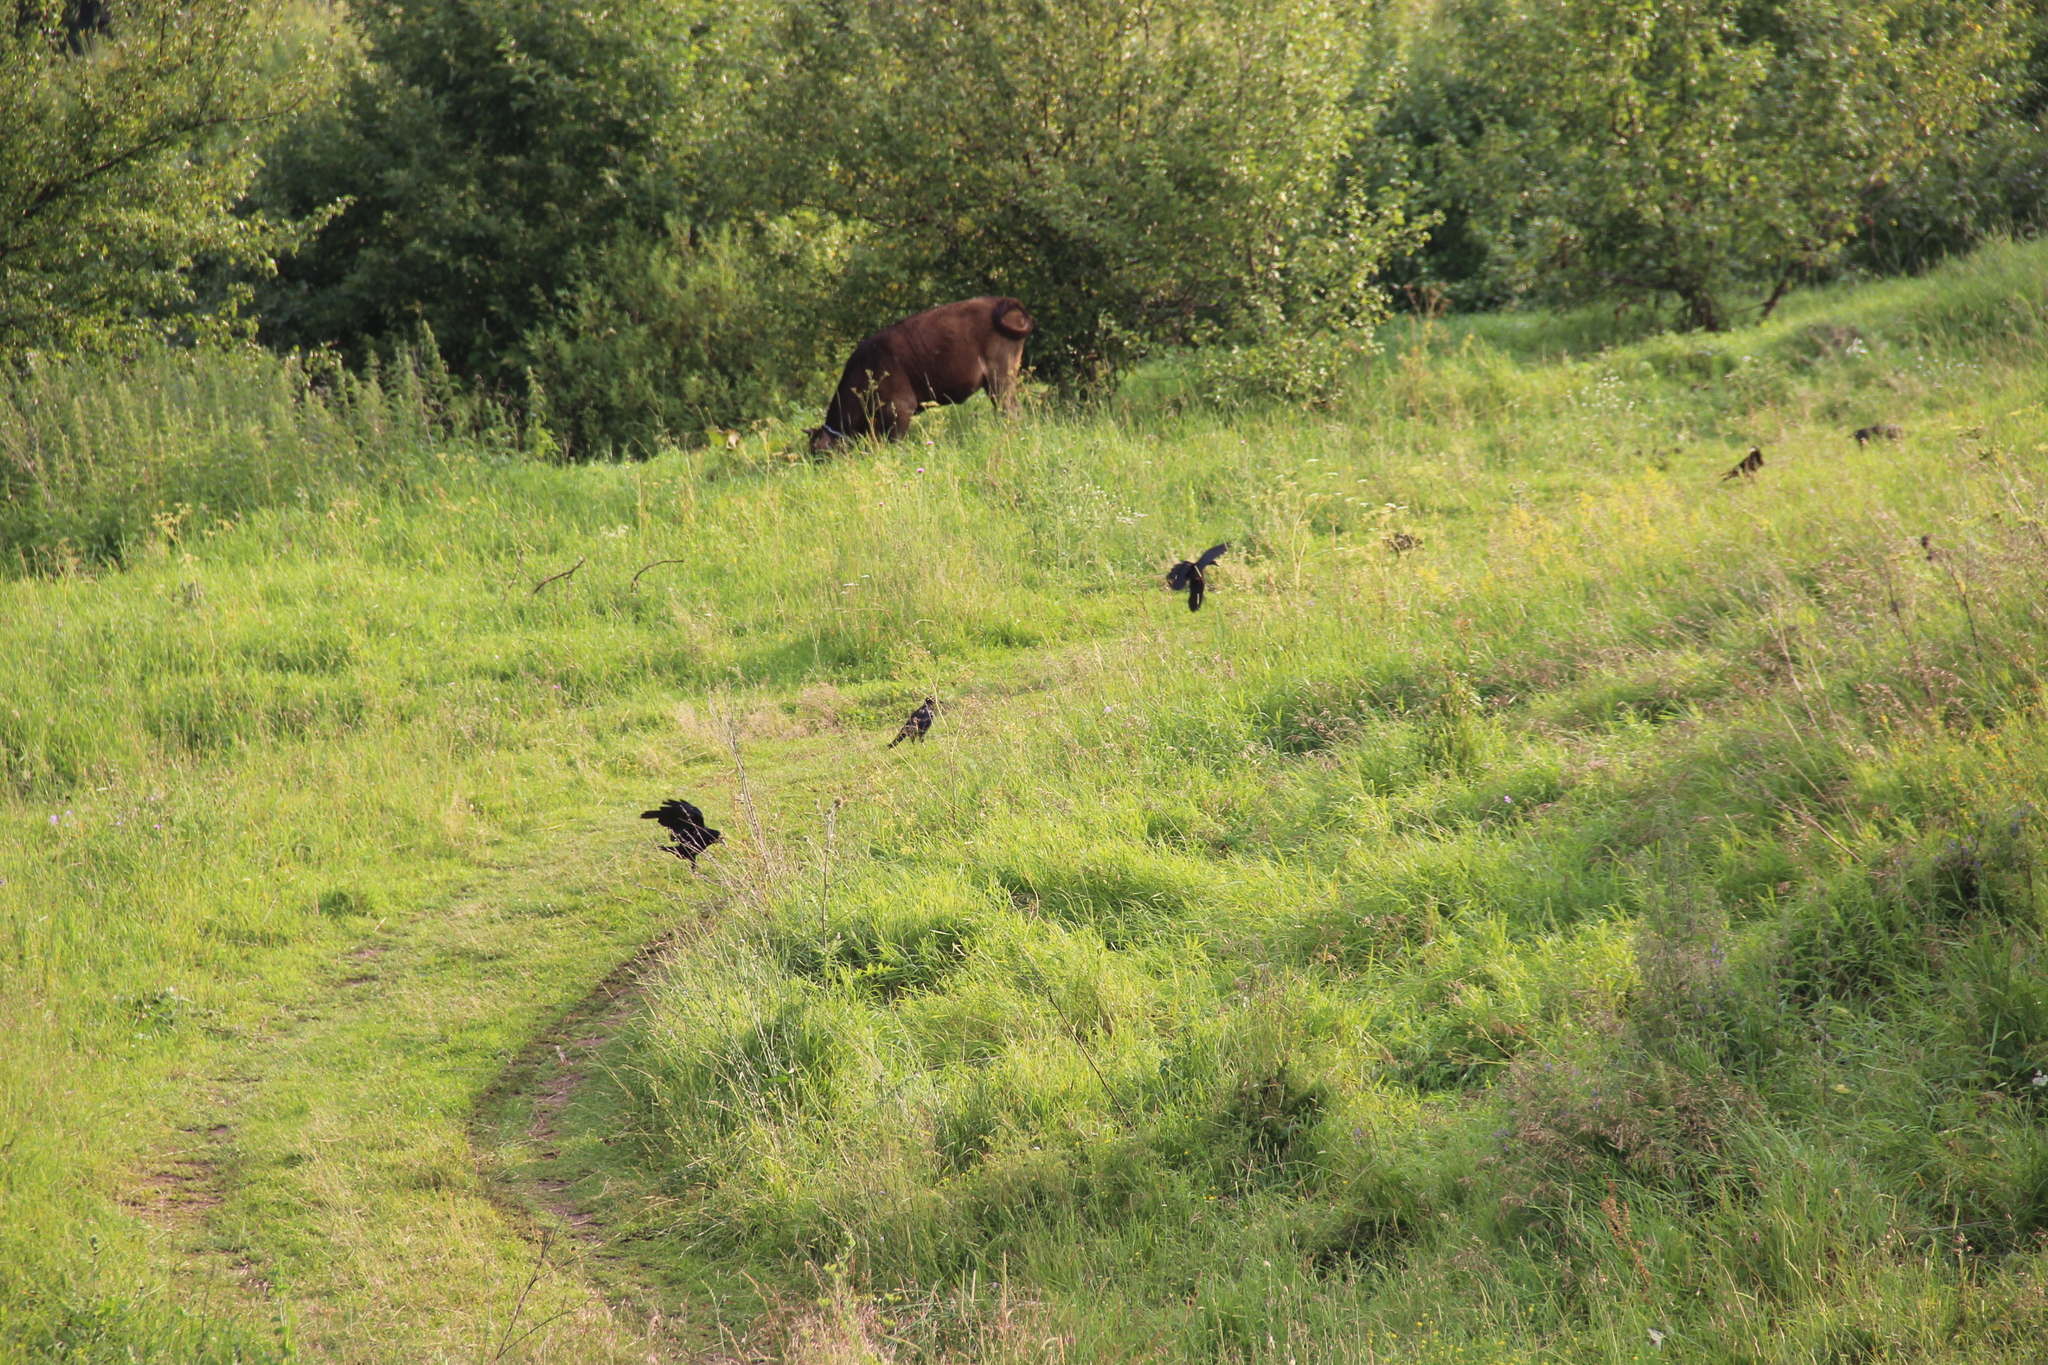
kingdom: Animalia
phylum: Chordata
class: Aves
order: Passeriformes
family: Corvidae
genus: Corvus
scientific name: Corvus frugilegus
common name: Rook
